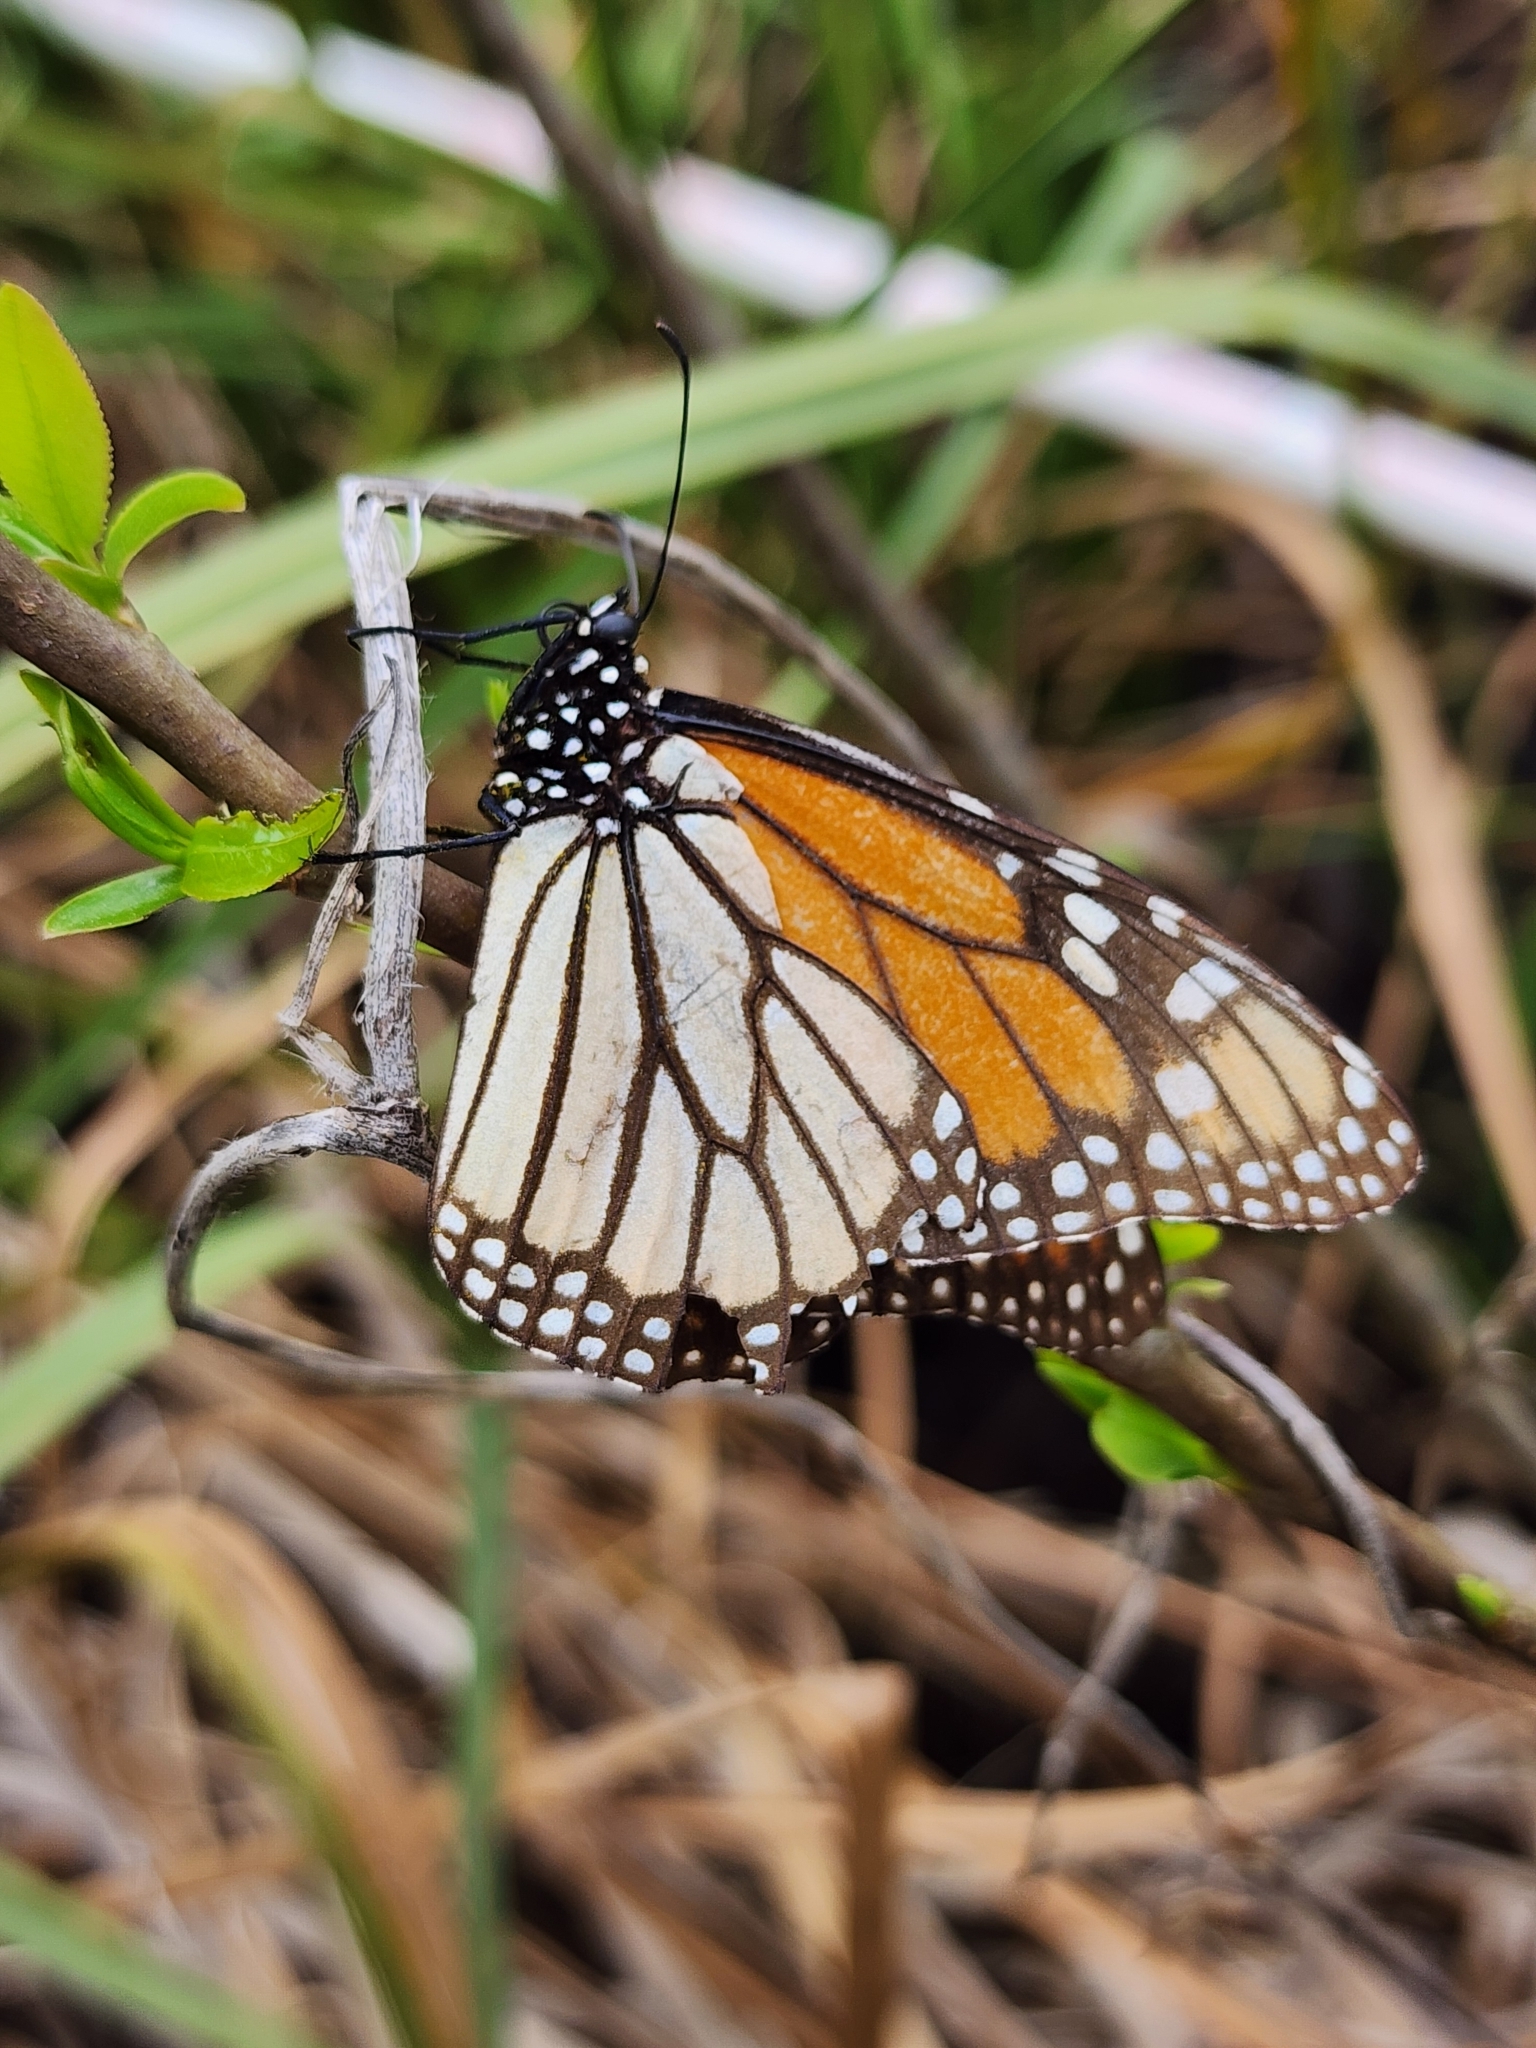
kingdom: Animalia
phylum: Arthropoda
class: Insecta
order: Lepidoptera
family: Nymphalidae
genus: Danaus
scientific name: Danaus plexippus
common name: Monarch
